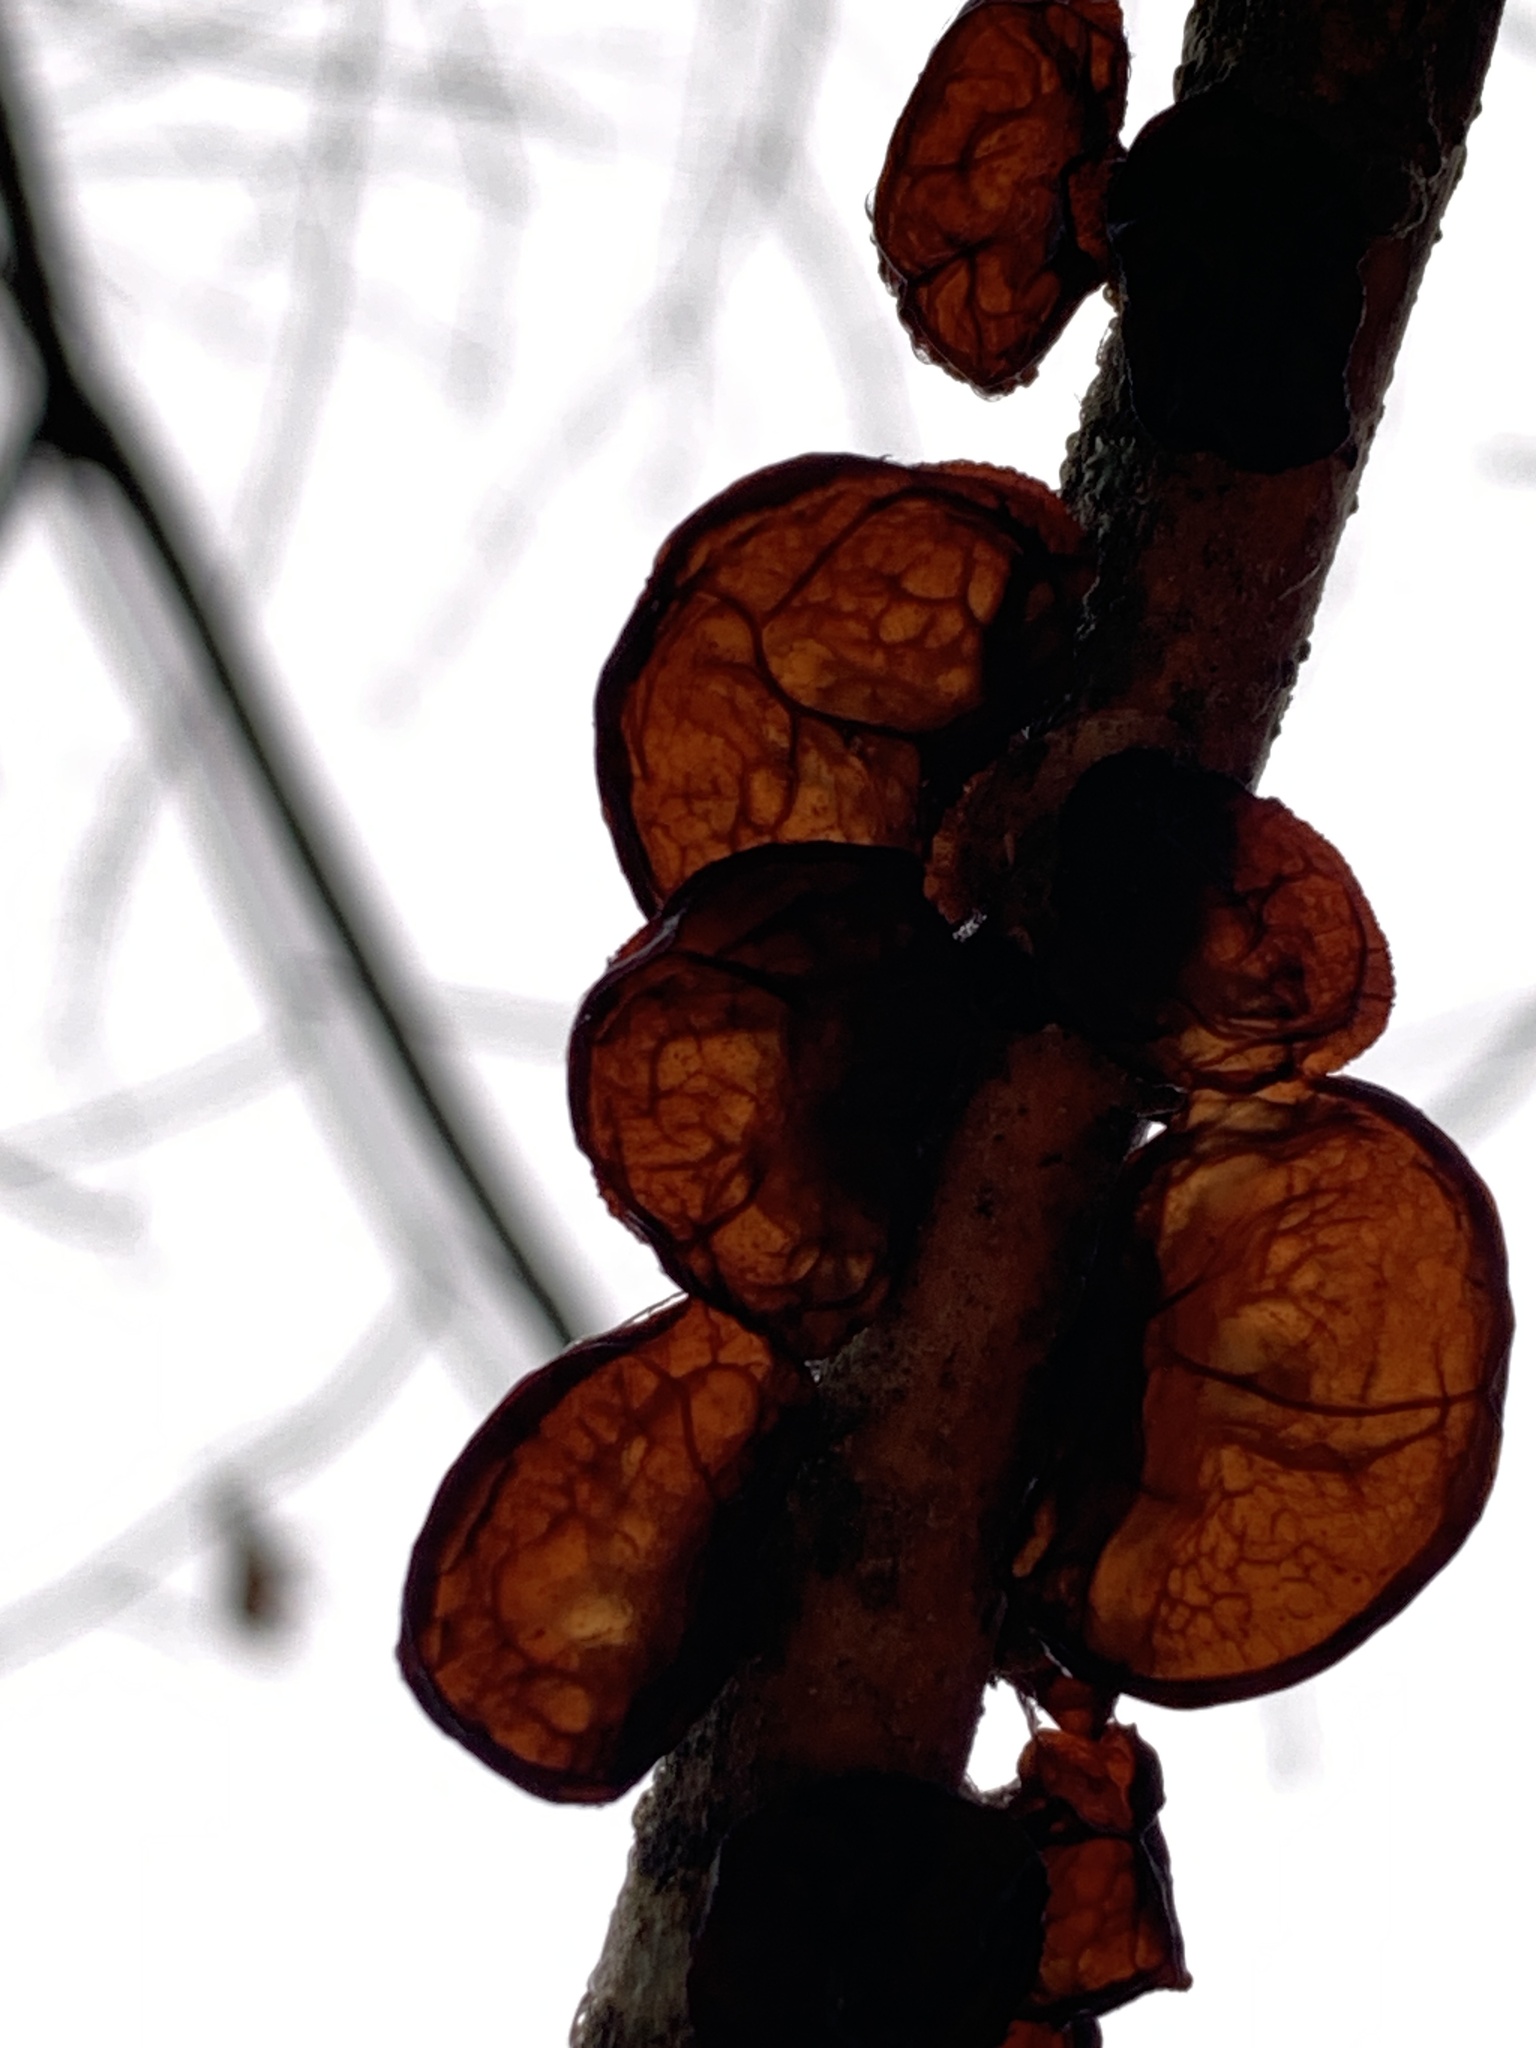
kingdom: Fungi
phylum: Basidiomycota
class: Agaricomycetes
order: Auriculariales
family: Auriculariaceae
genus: Exidia
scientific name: Exidia recisa
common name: Amber jelly
